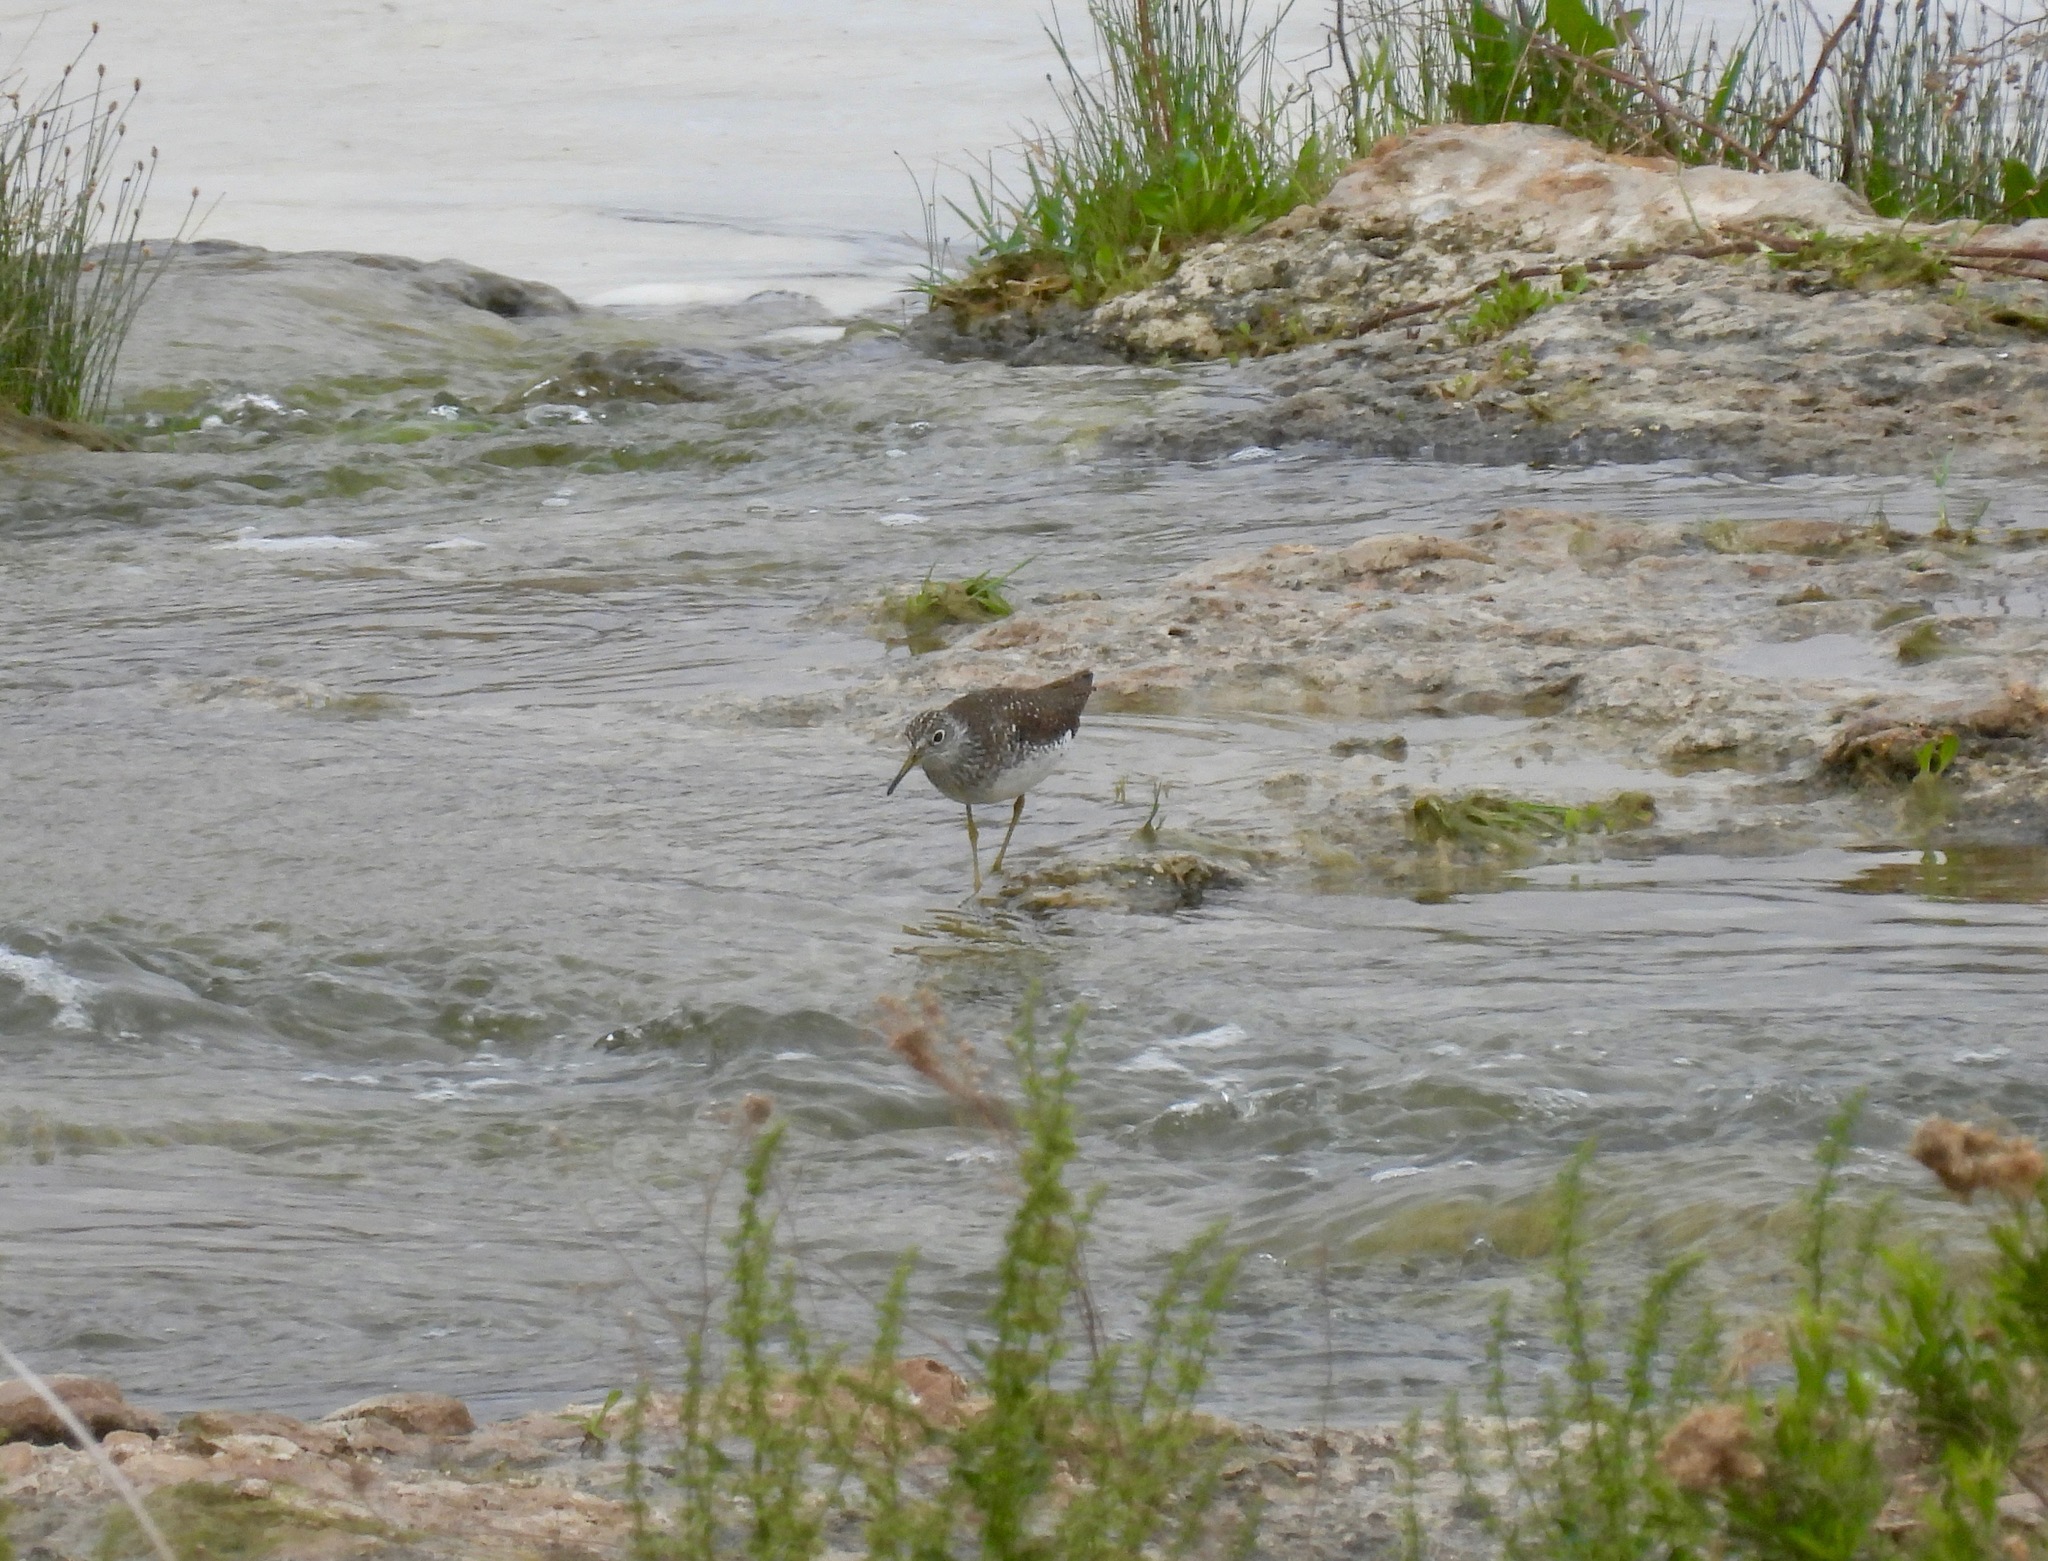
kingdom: Animalia
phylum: Chordata
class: Aves
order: Charadriiformes
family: Scolopacidae
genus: Tringa
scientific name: Tringa solitaria
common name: Solitary sandpiper
